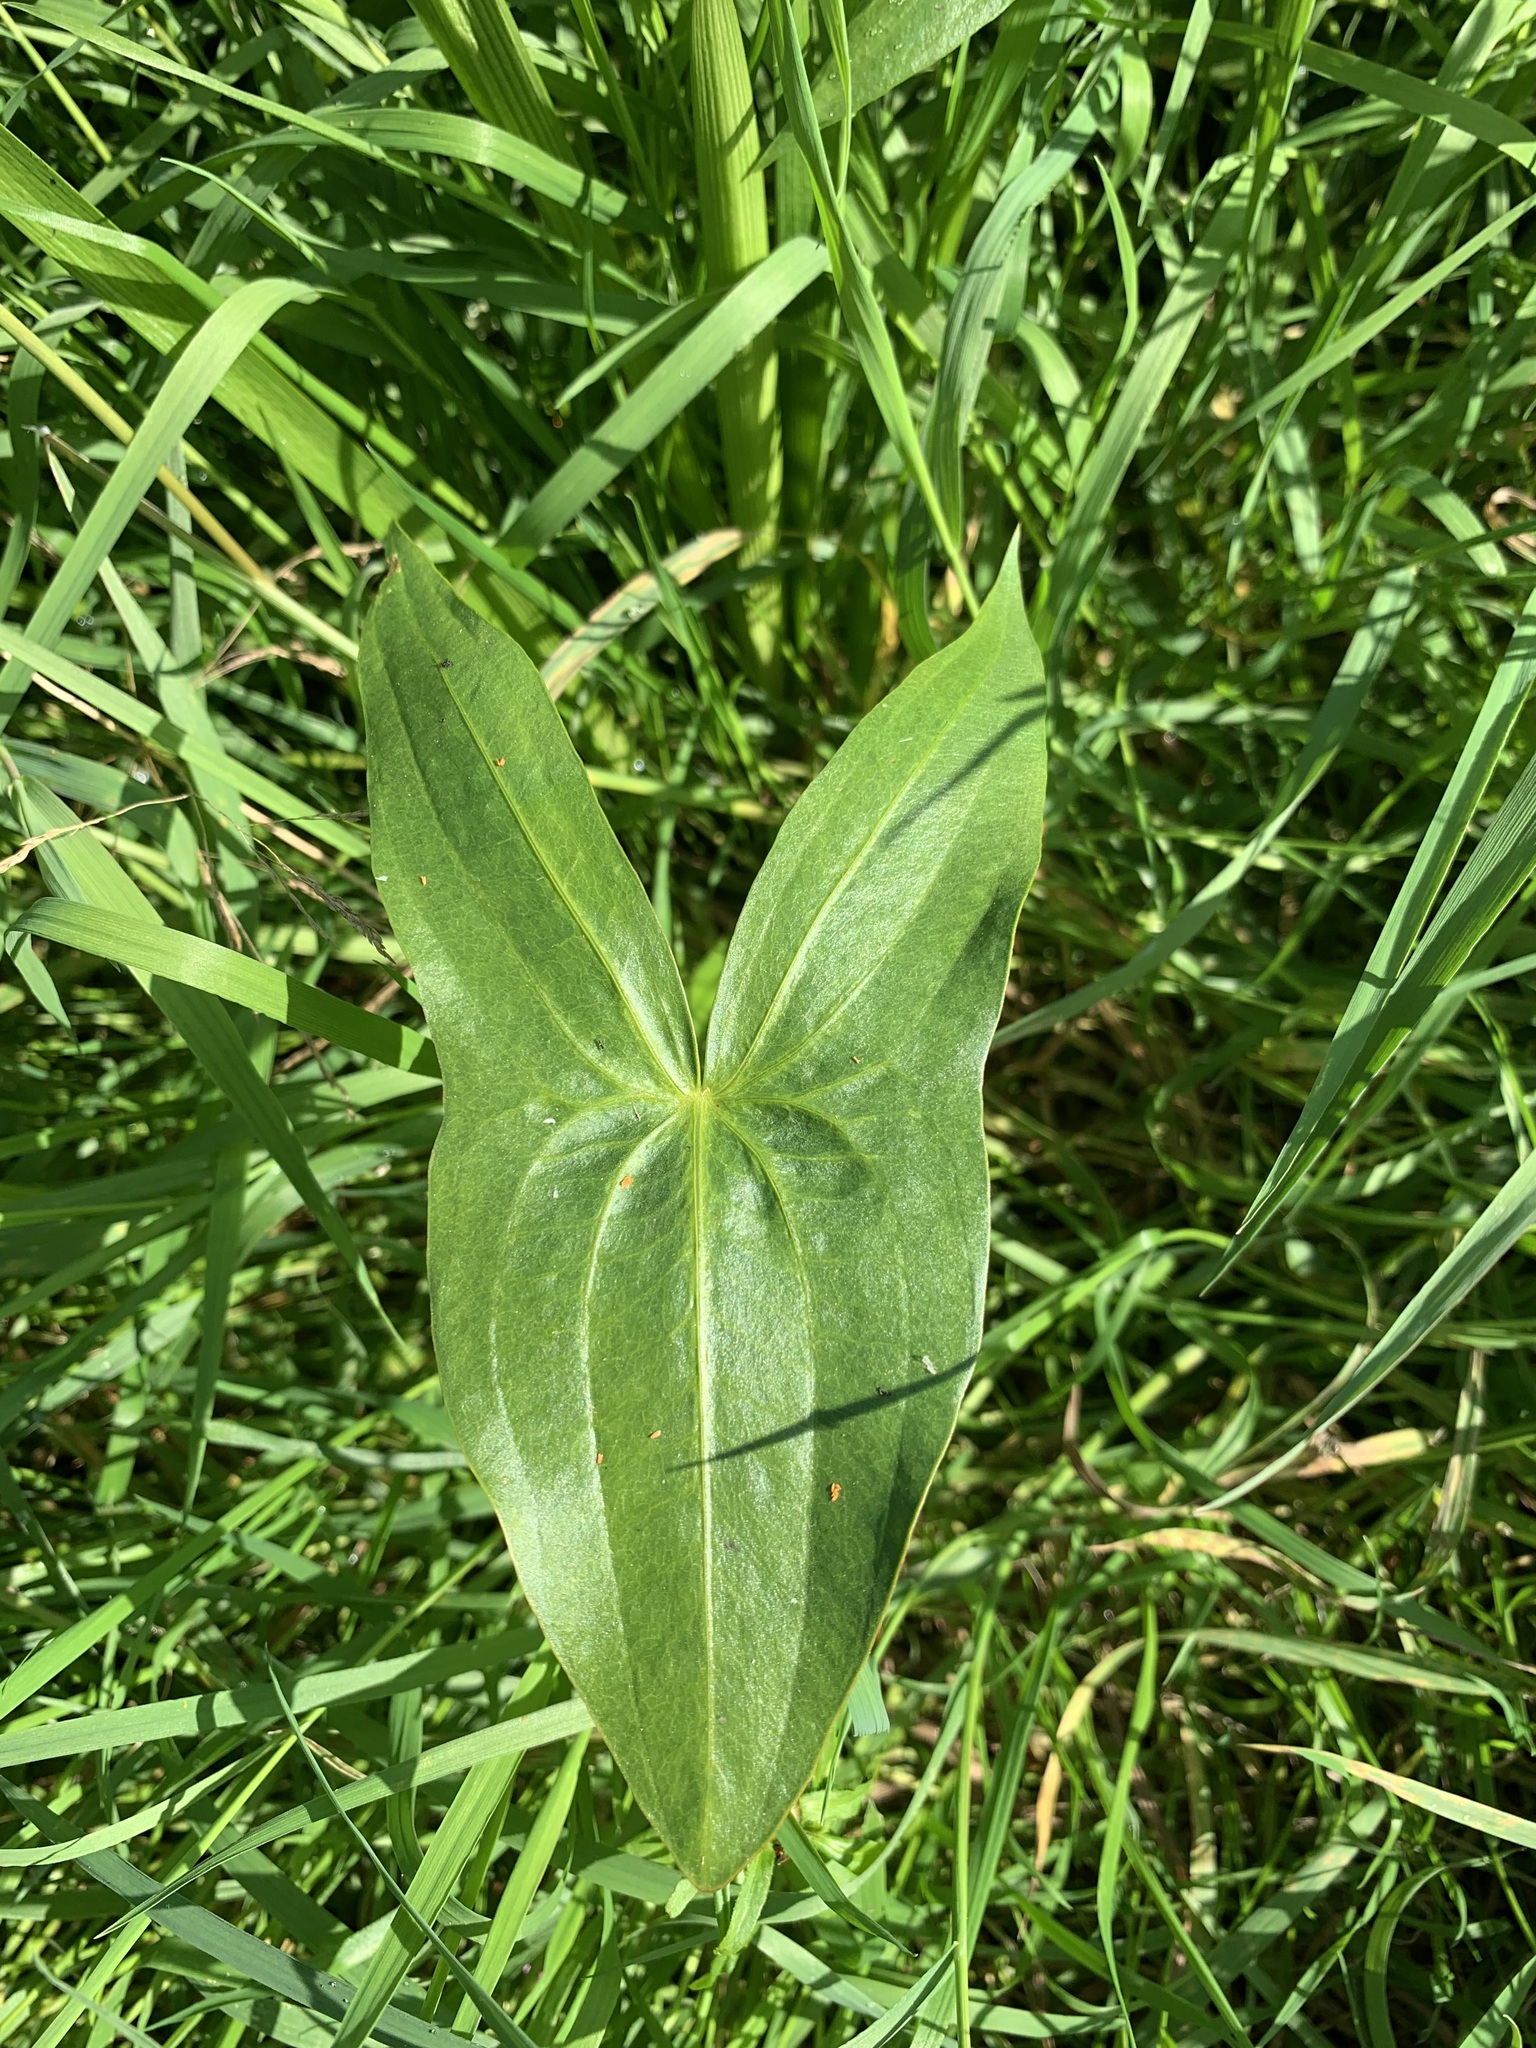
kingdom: Plantae
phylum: Tracheophyta
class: Liliopsida
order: Alismatales
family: Alismataceae
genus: Sagittaria
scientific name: Sagittaria sagittifolia
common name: Arrowhead
